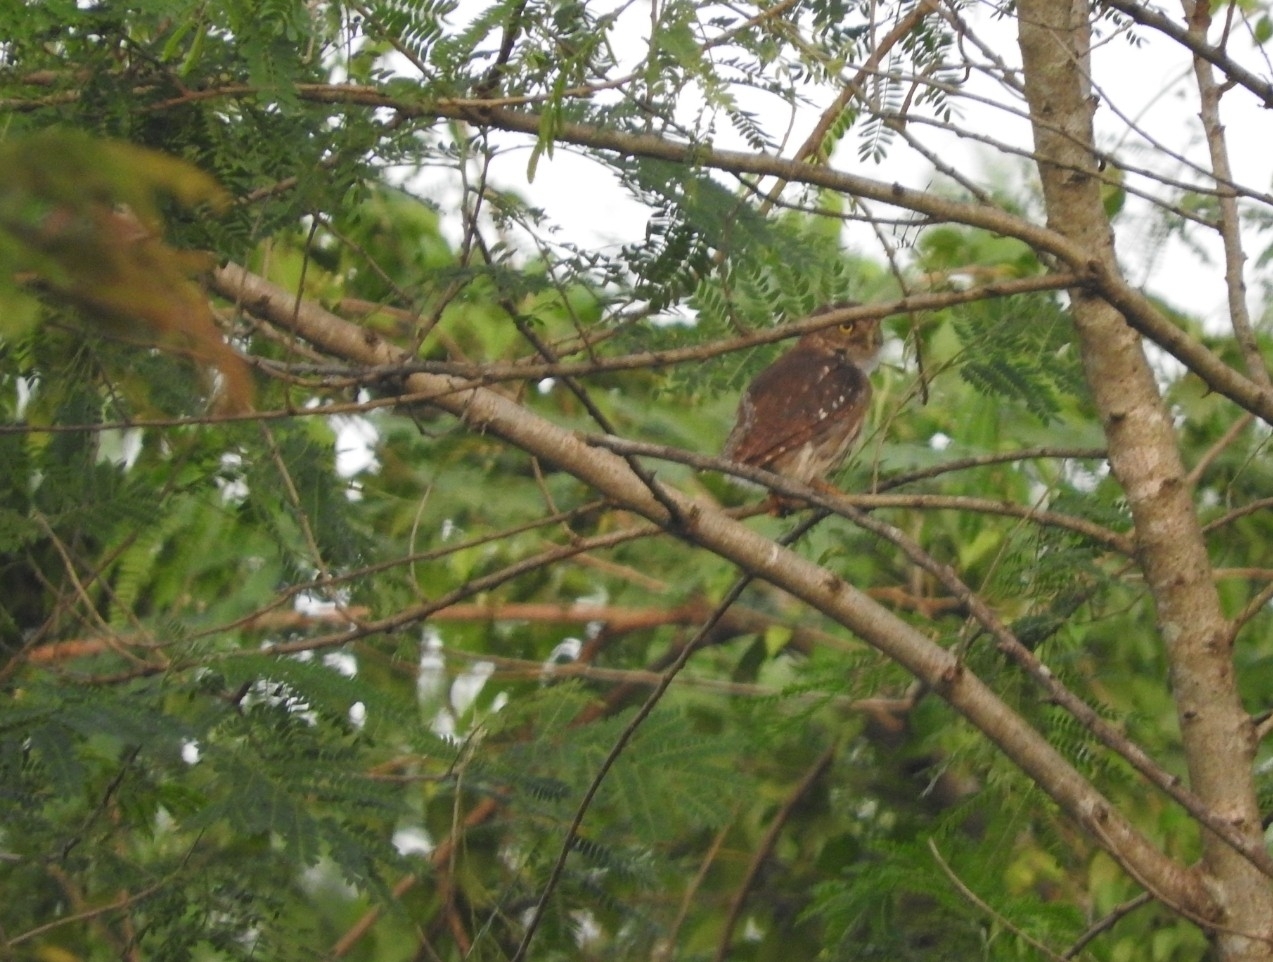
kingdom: Animalia
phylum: Chordata
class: Aves
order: Strigiformes
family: Strigidae
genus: Glaucidium
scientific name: Glaucidium brasilianum
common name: Ferruginous pygmy-owl
